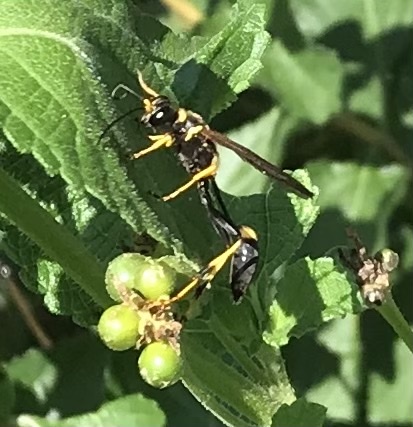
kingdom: Animalia
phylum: Arthropoda
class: Insecta
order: Hymenoptera
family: Sphecidae
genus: Sceliphron
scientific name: Sceliphron caementarium
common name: Mud dauber
